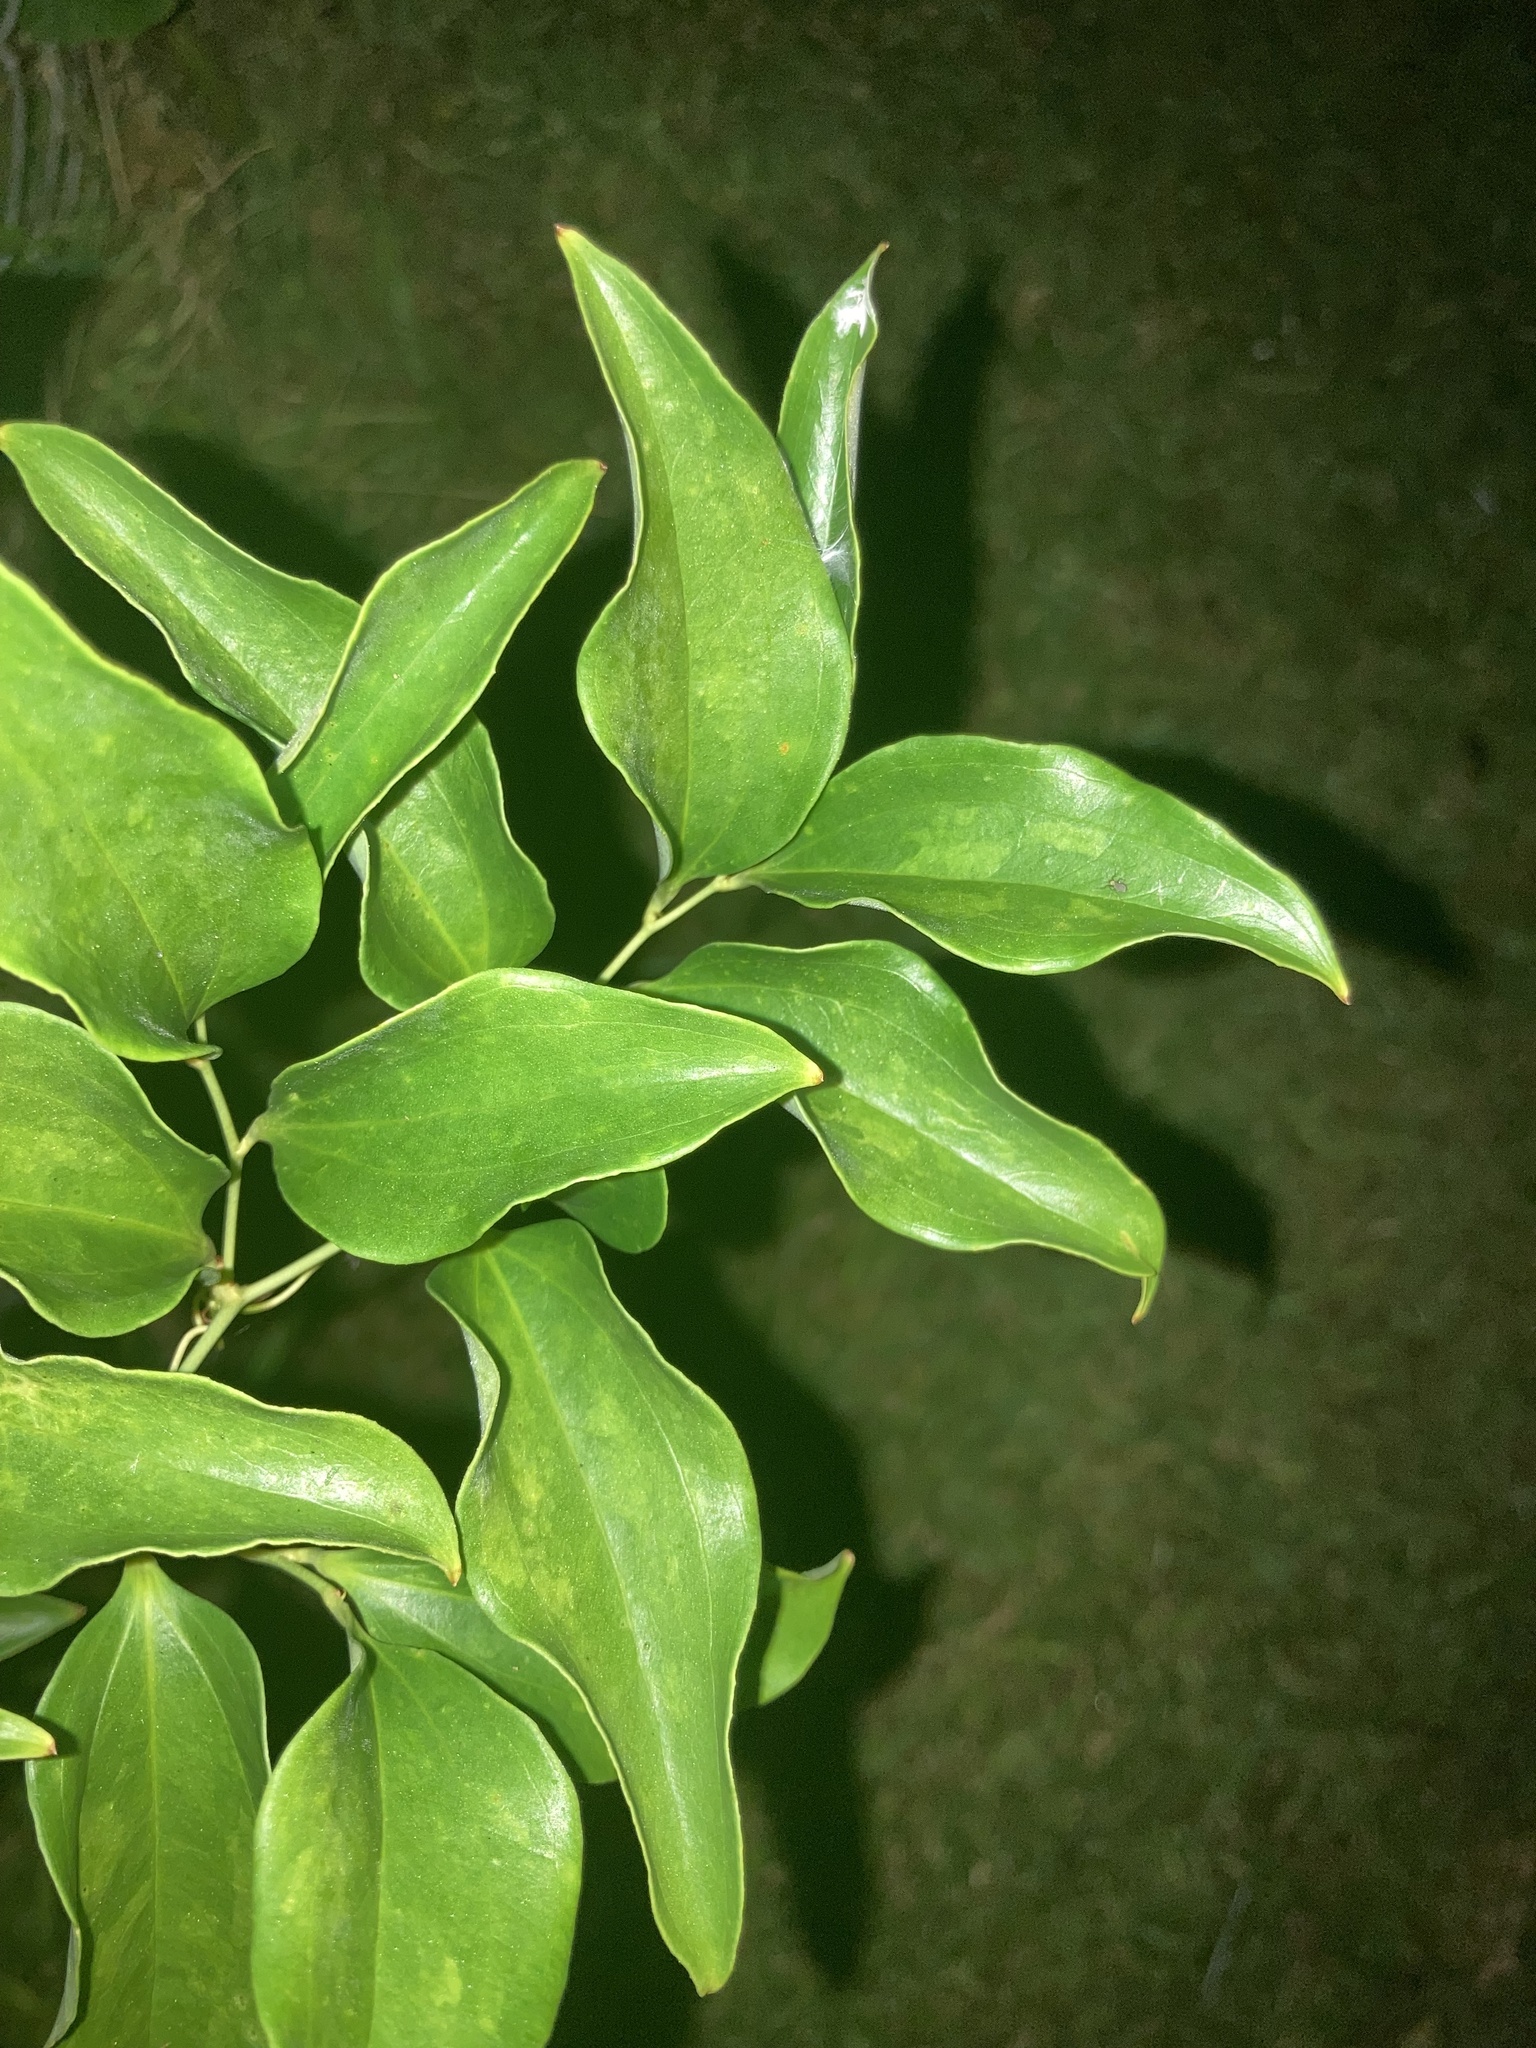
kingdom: Plantae
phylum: Tracheophyta
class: Liliopsida
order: Liliales
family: Smilacaceae
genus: Smilax
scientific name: Smilax maritima
